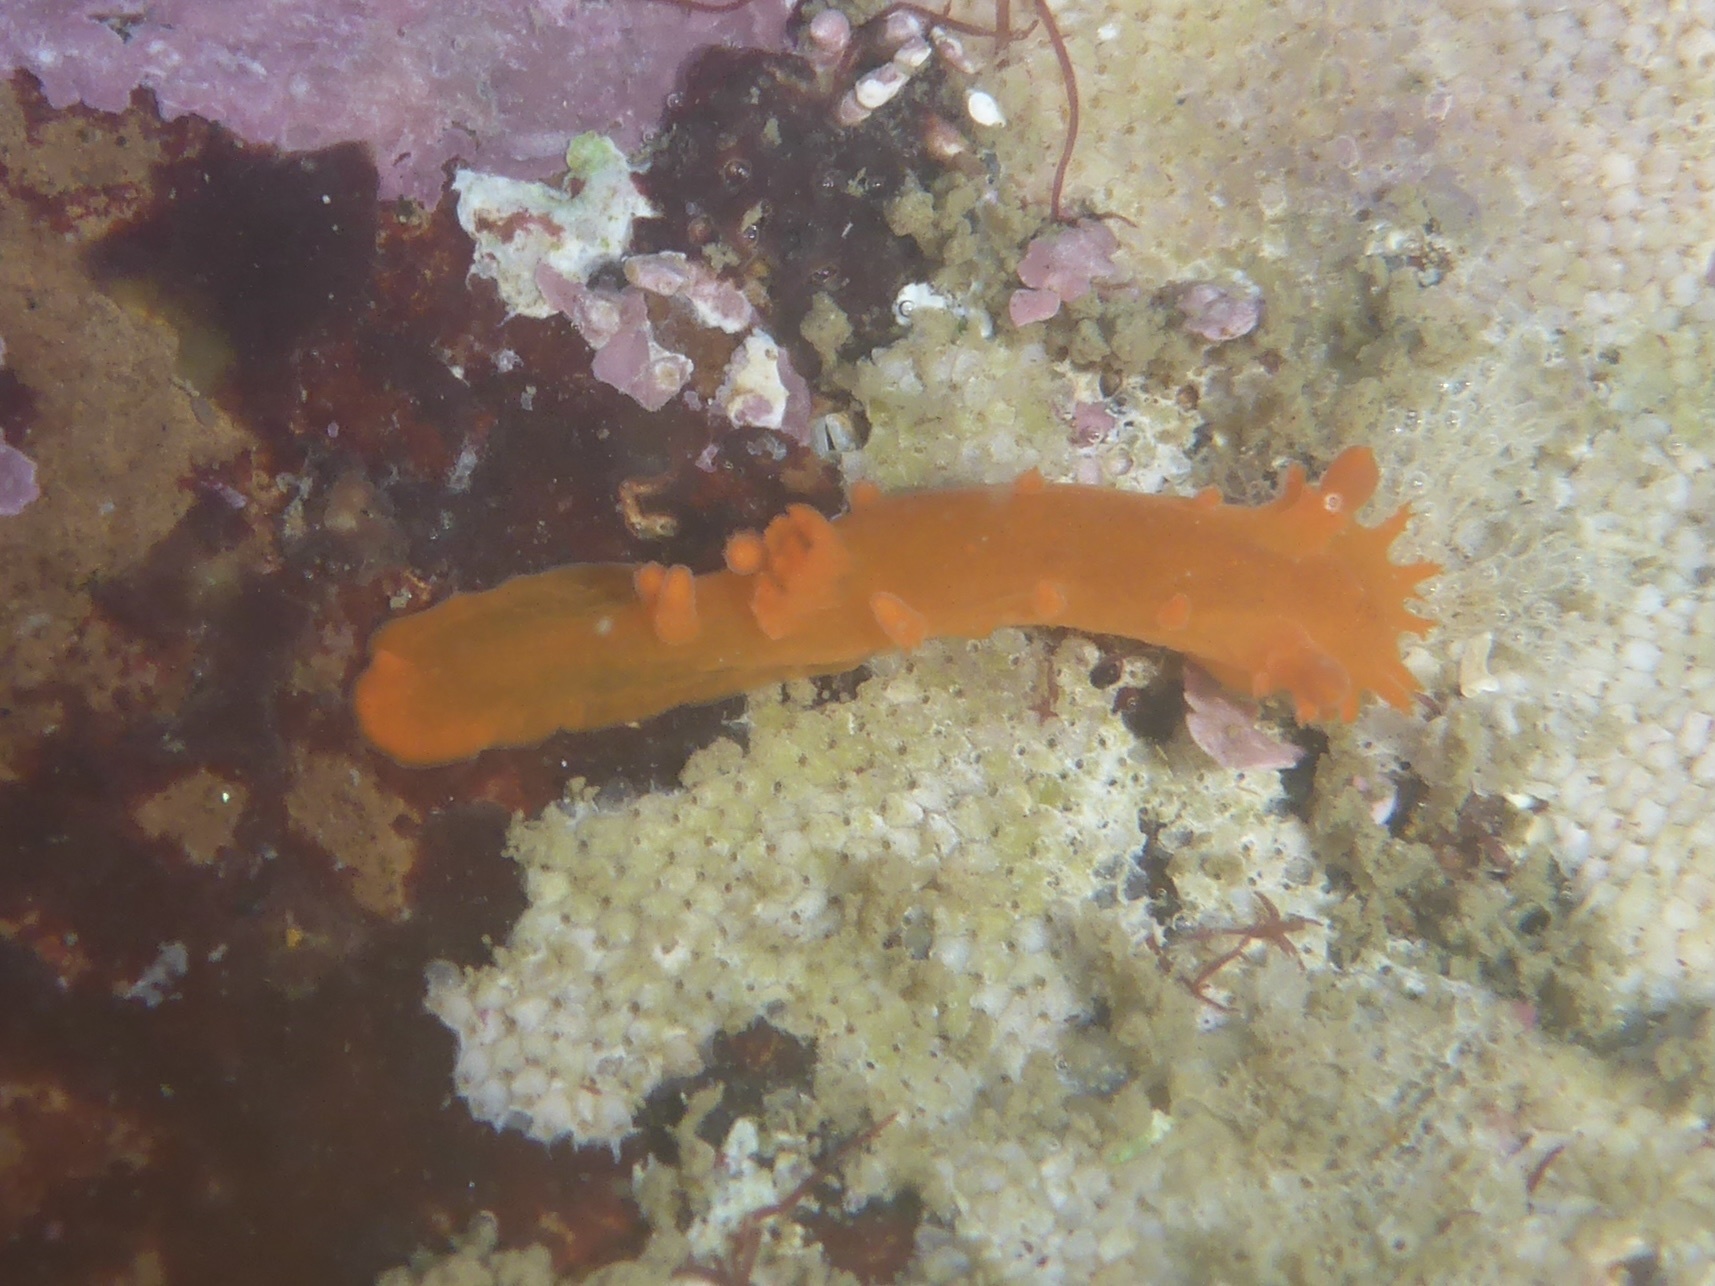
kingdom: Animalia
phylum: Mollusca
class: Gastropoda
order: Nudibranchia
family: Polyceridae
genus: Triopha
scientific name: Triopha maculata
